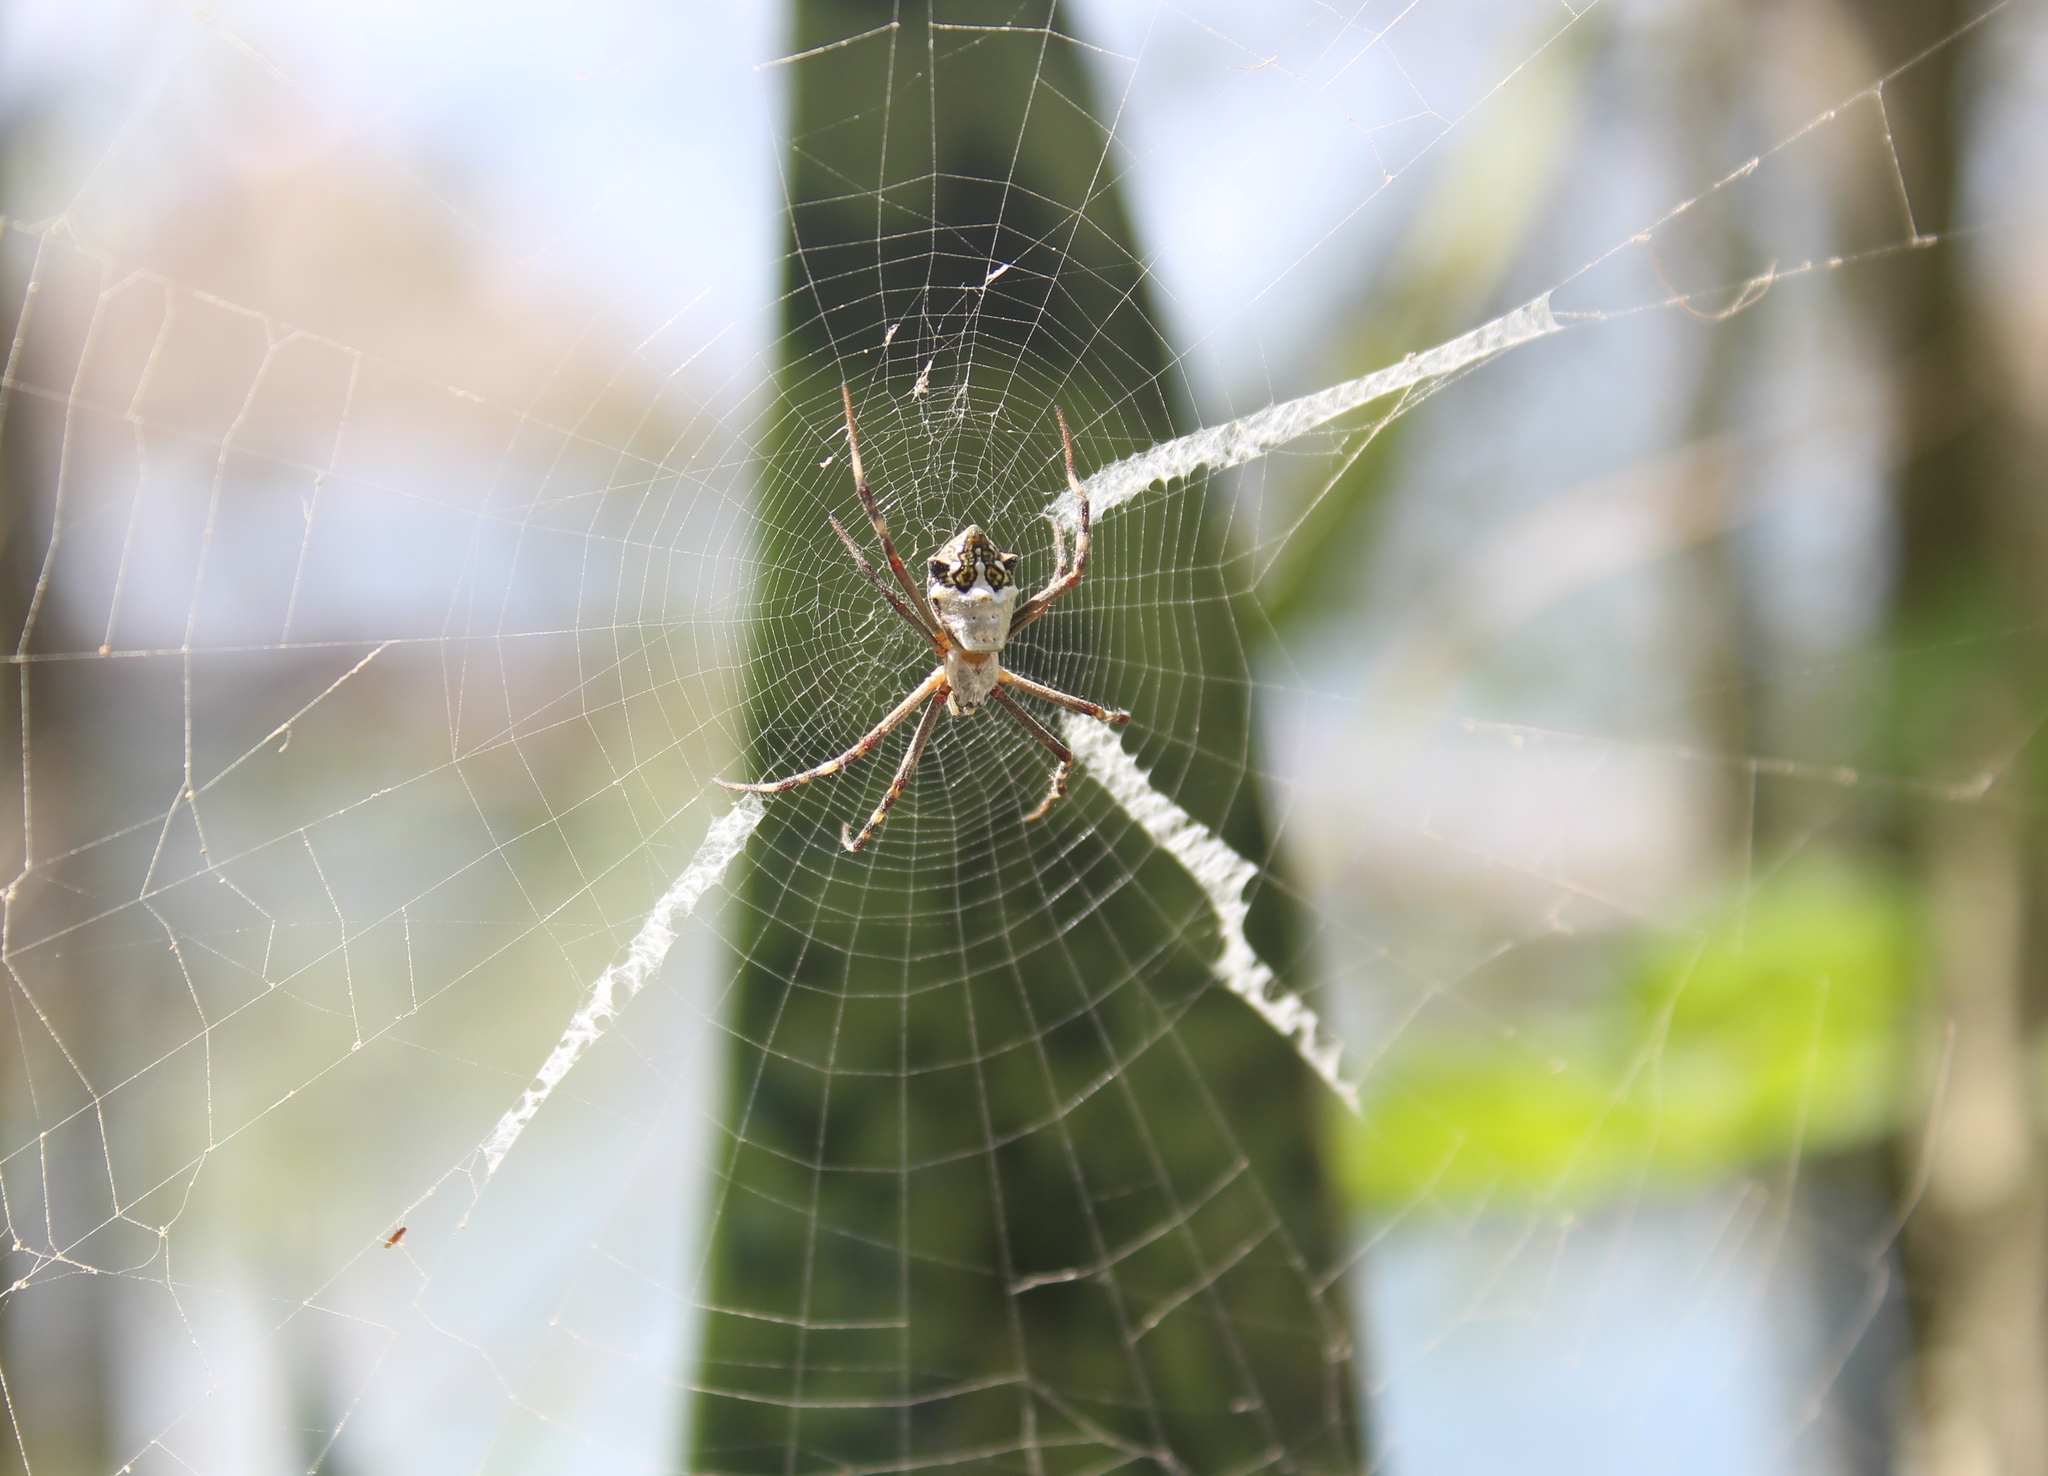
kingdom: Animalia
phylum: Arthropoda
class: Arachnida
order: Araneae
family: Araneidae
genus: Argiope
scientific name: Argiope argentata
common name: Orb weavers
